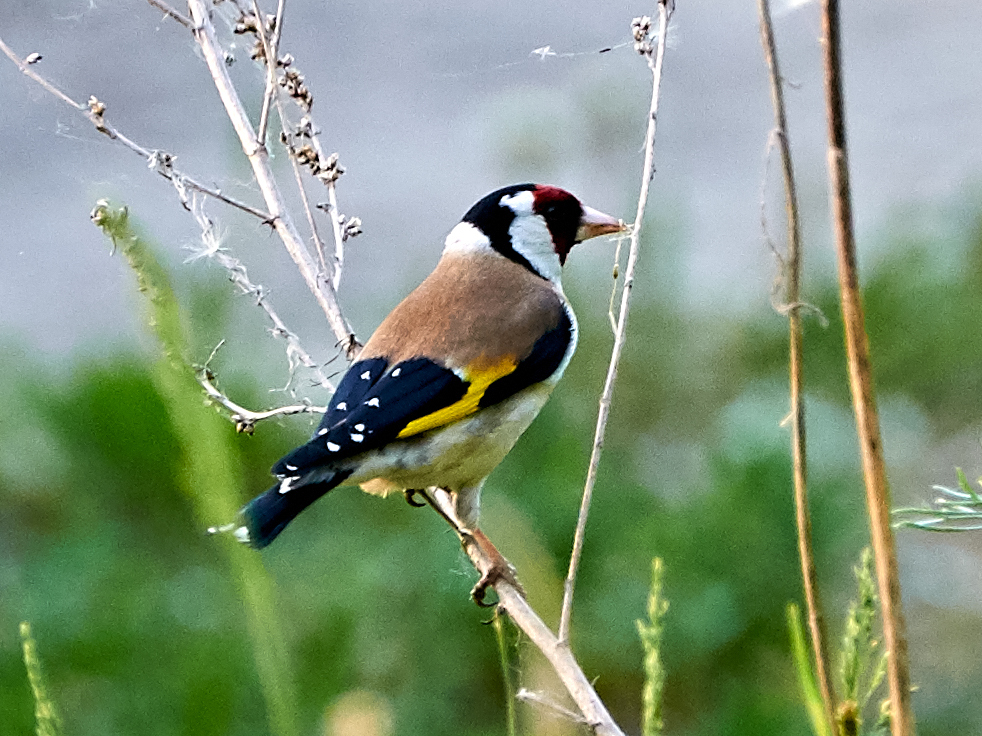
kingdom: Animalia
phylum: Chordata
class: Aves
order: Passeriformes
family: Fringillidae
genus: Carduelis
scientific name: Carduelis carduelis
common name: European goldfinch
